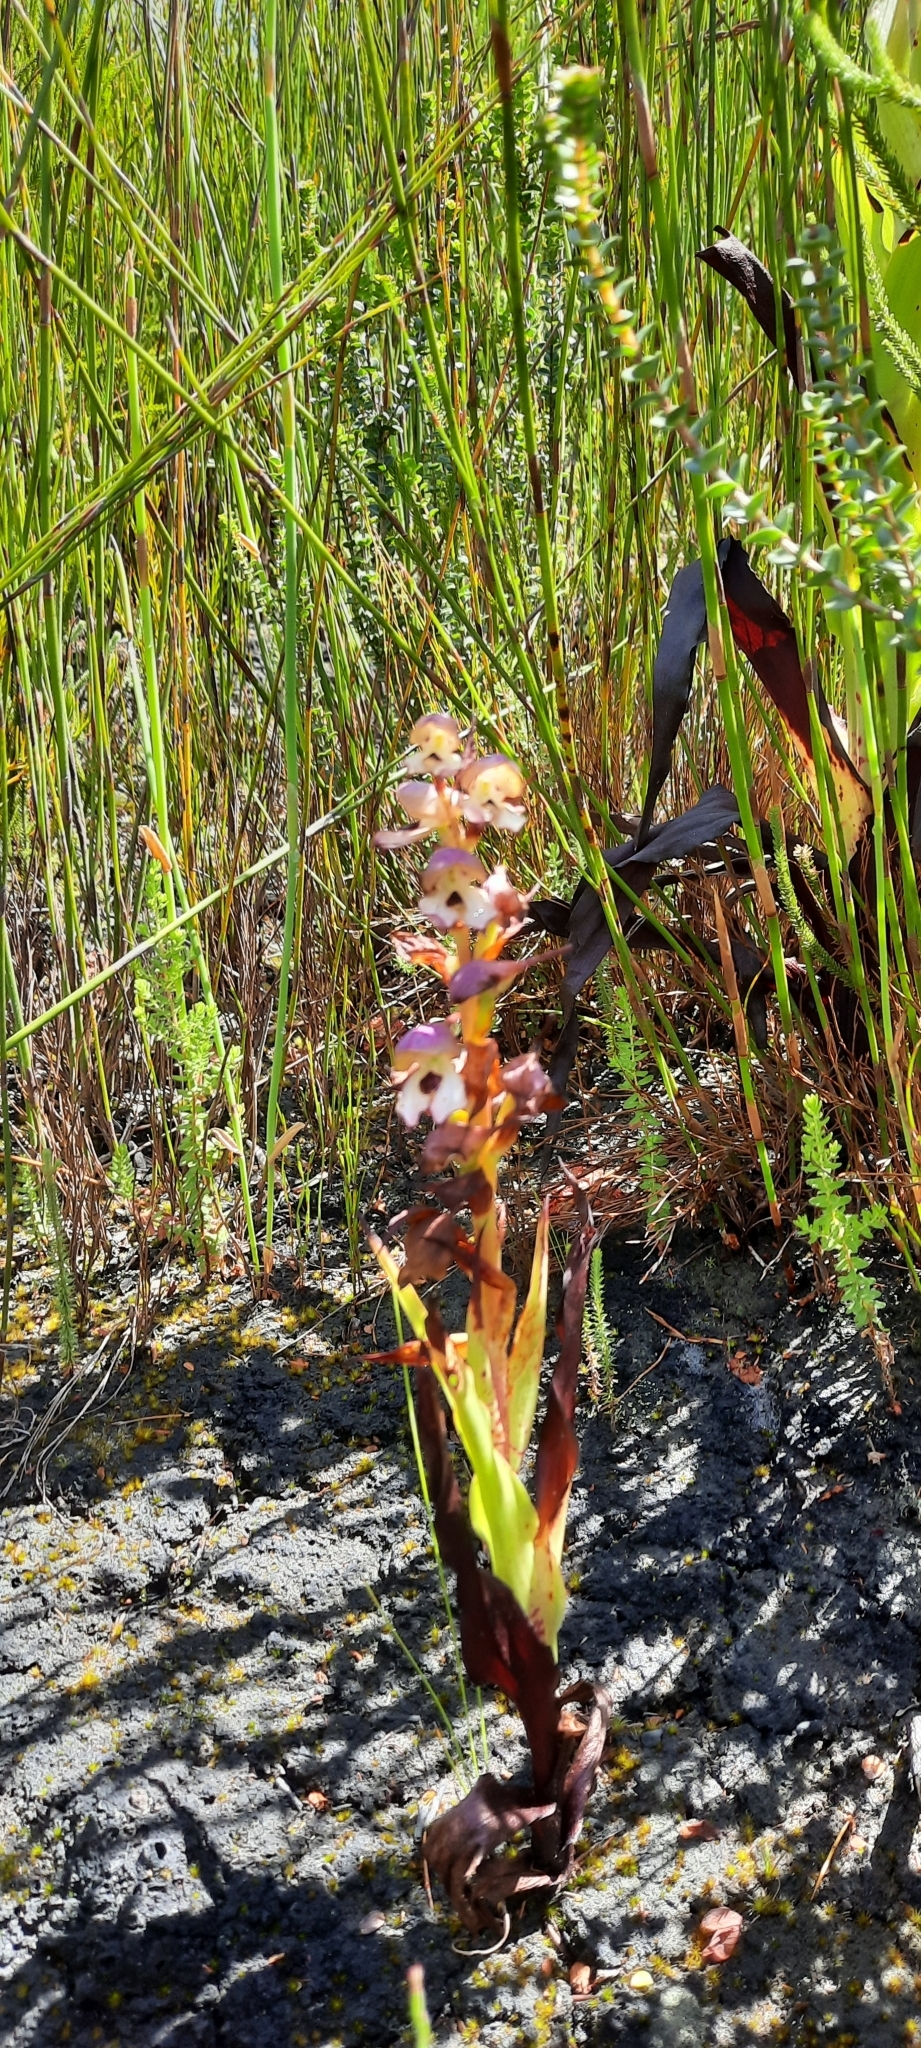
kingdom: Plantae
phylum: Tracheophyta
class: Liliopsida
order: Asparagales
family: Orchidaceae
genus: Disa
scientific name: Disa cornuta
